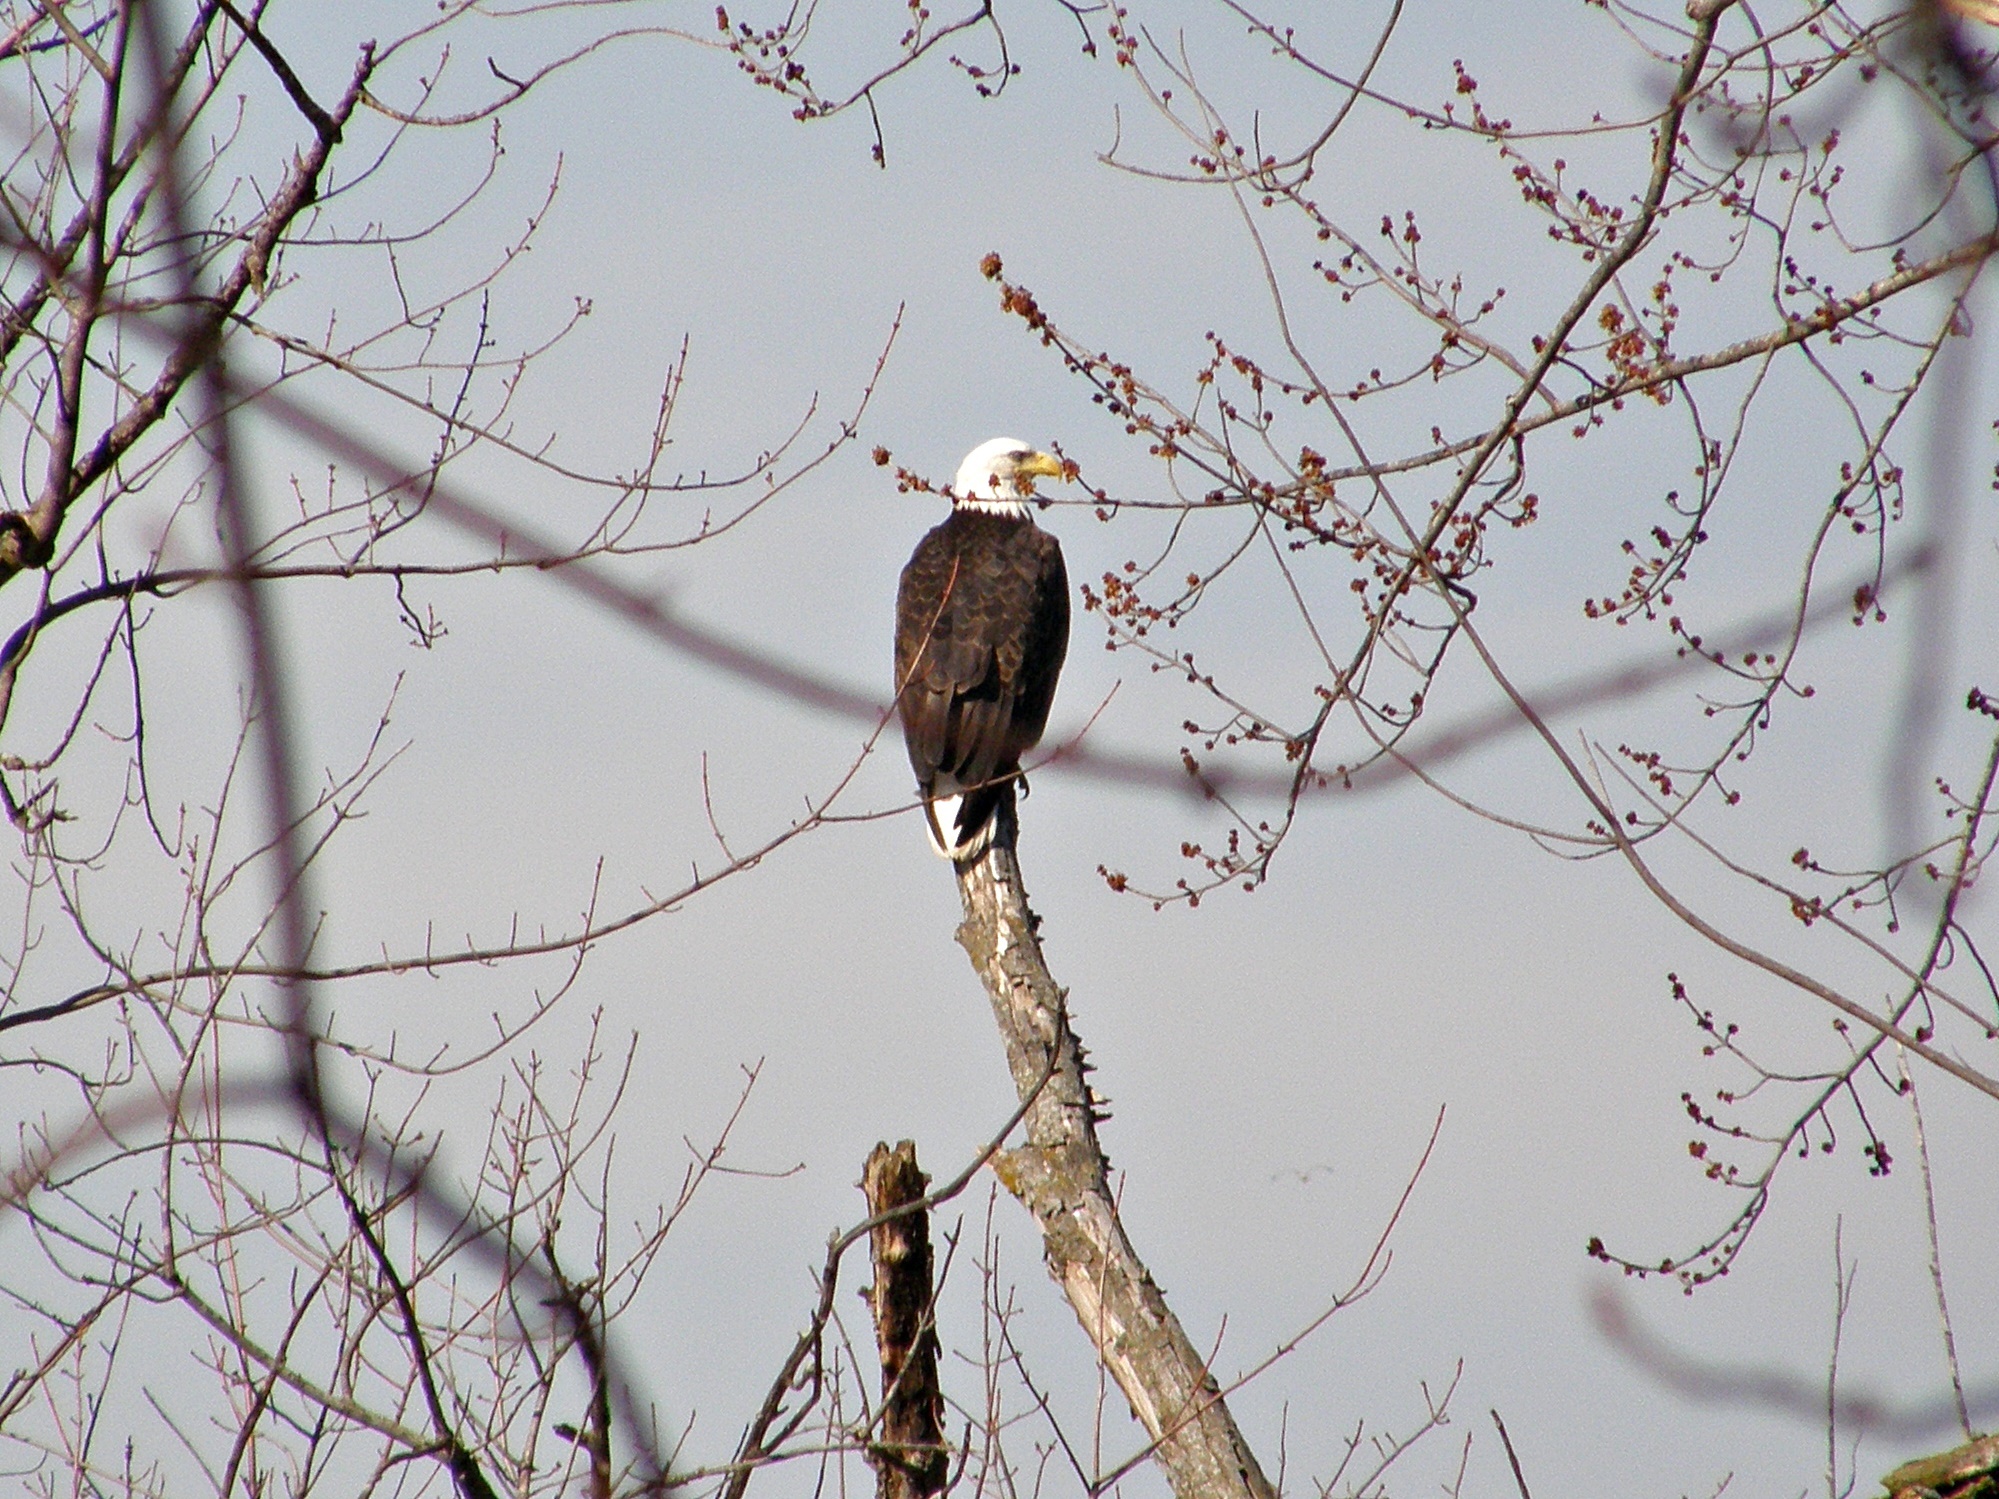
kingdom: Animalia
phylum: Chordata
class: Aves
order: Accipitriformes
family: Accipitridae
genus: Haliaeetus
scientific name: Haliaeetus leucocephalus
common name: Bald eagle
